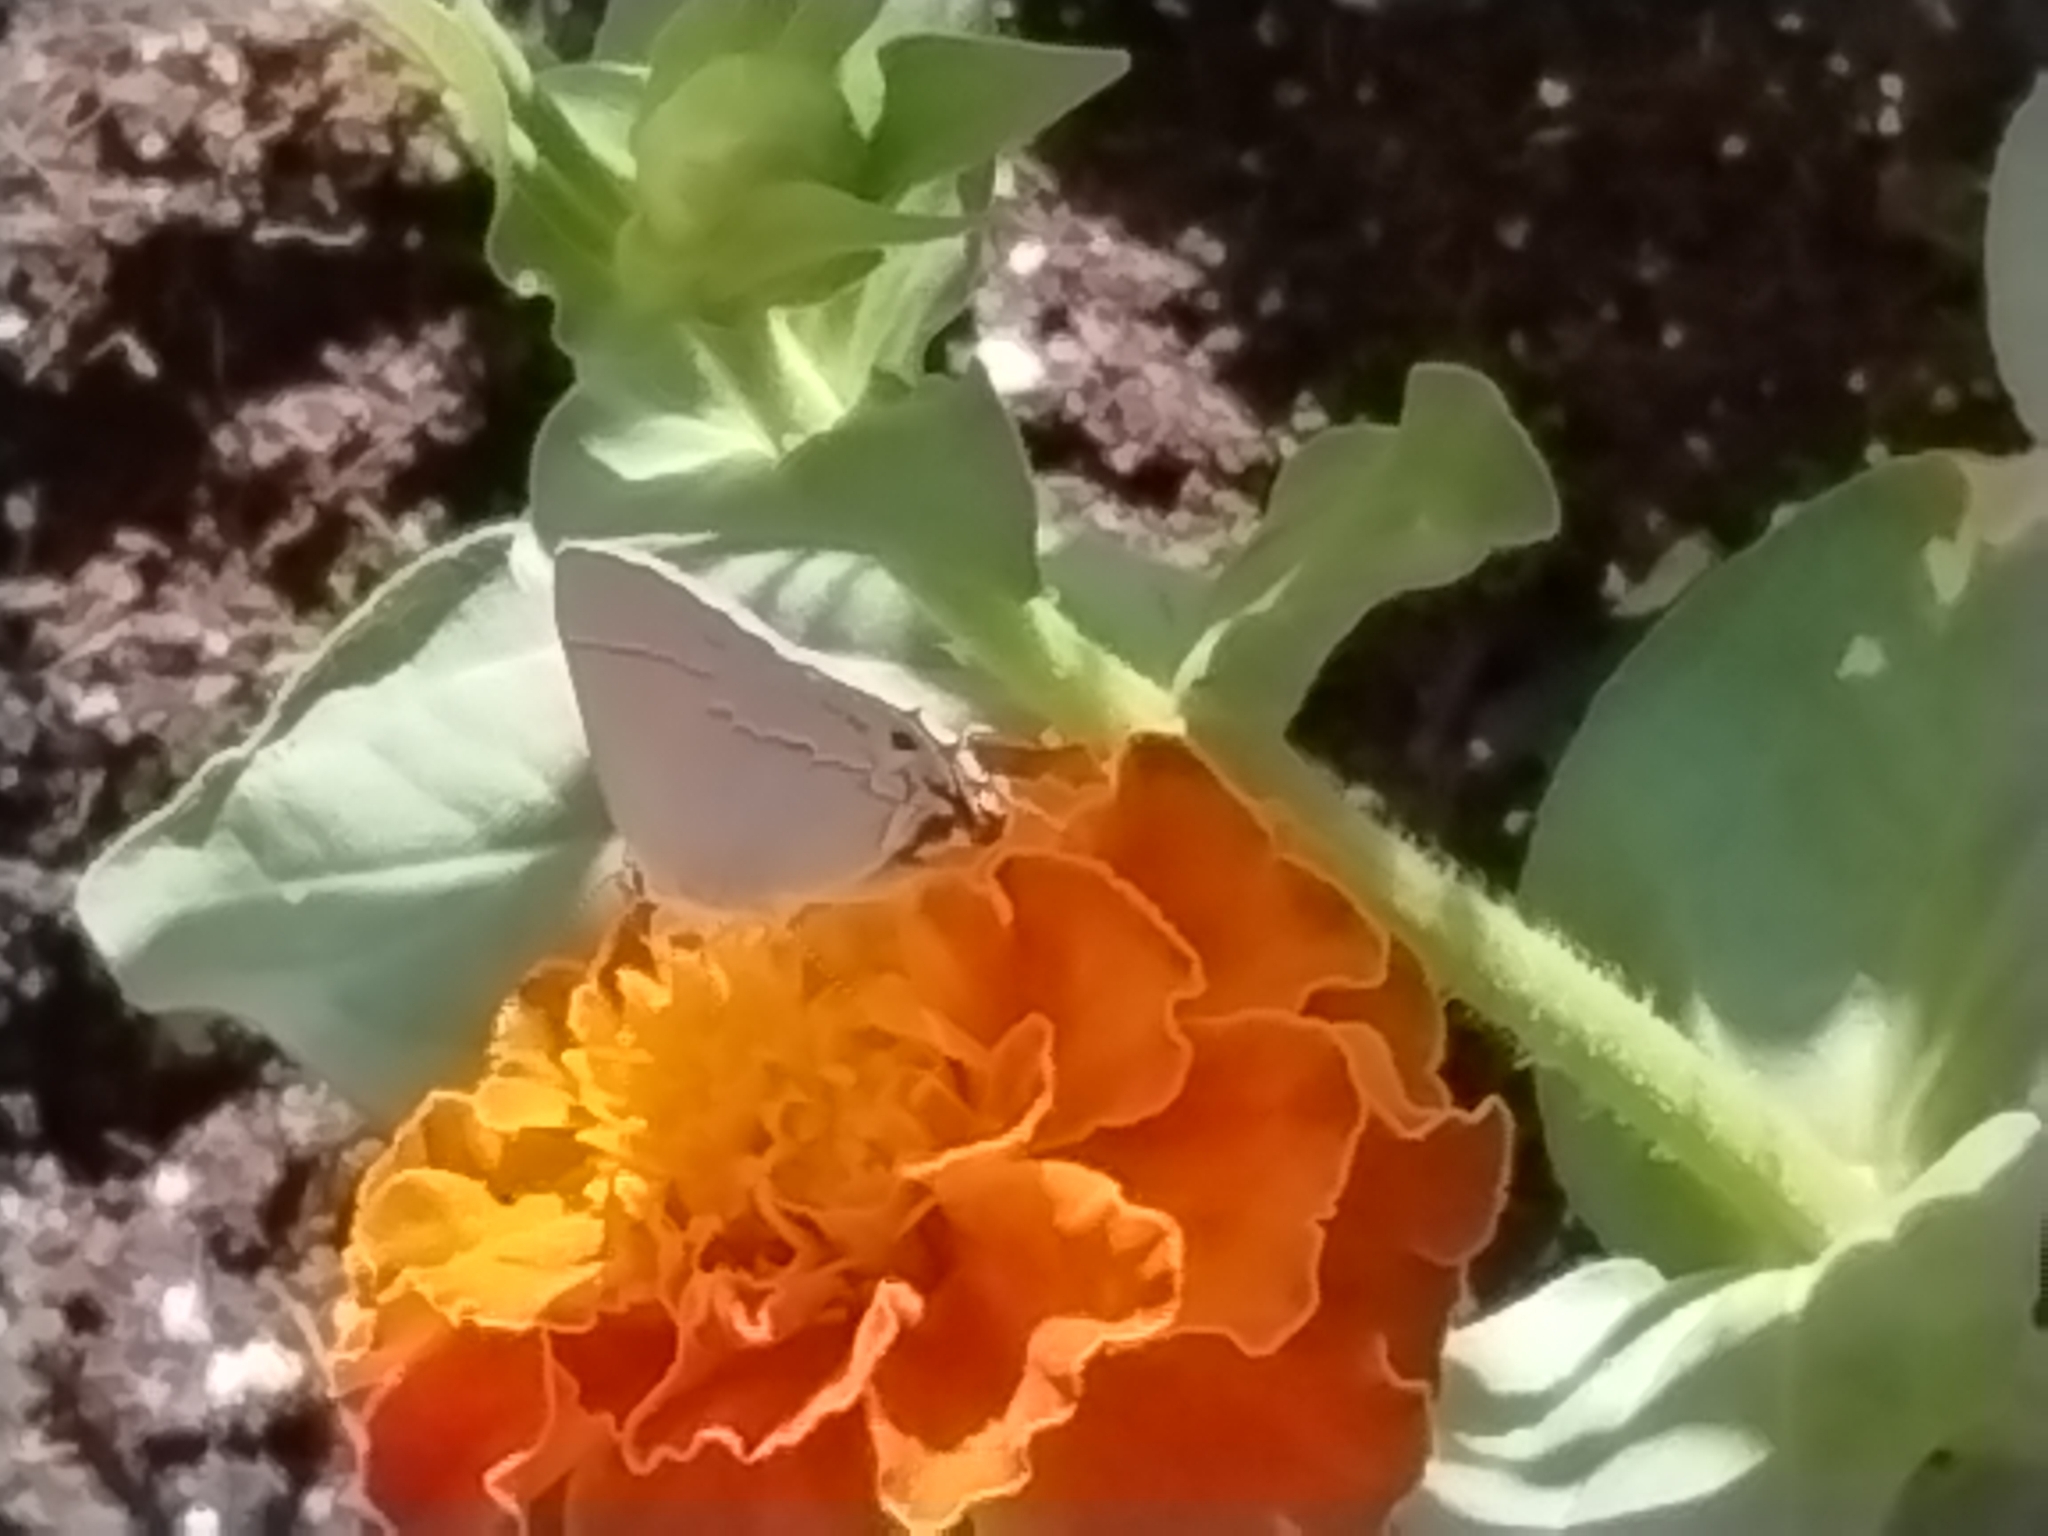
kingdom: Animalia
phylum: Arthropoda
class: Insecta
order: Lepidoptera
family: Lycaenidae
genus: Strymon
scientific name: Strymon melinus
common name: Gray hairstreak
